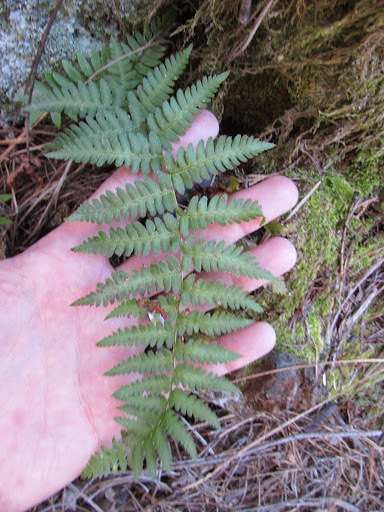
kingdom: Plantae
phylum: Tracheophyta
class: Polypodiopsida
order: Polypodiales
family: Dryopteridaceae
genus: Dryopteris
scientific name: Dryopteris arguta
